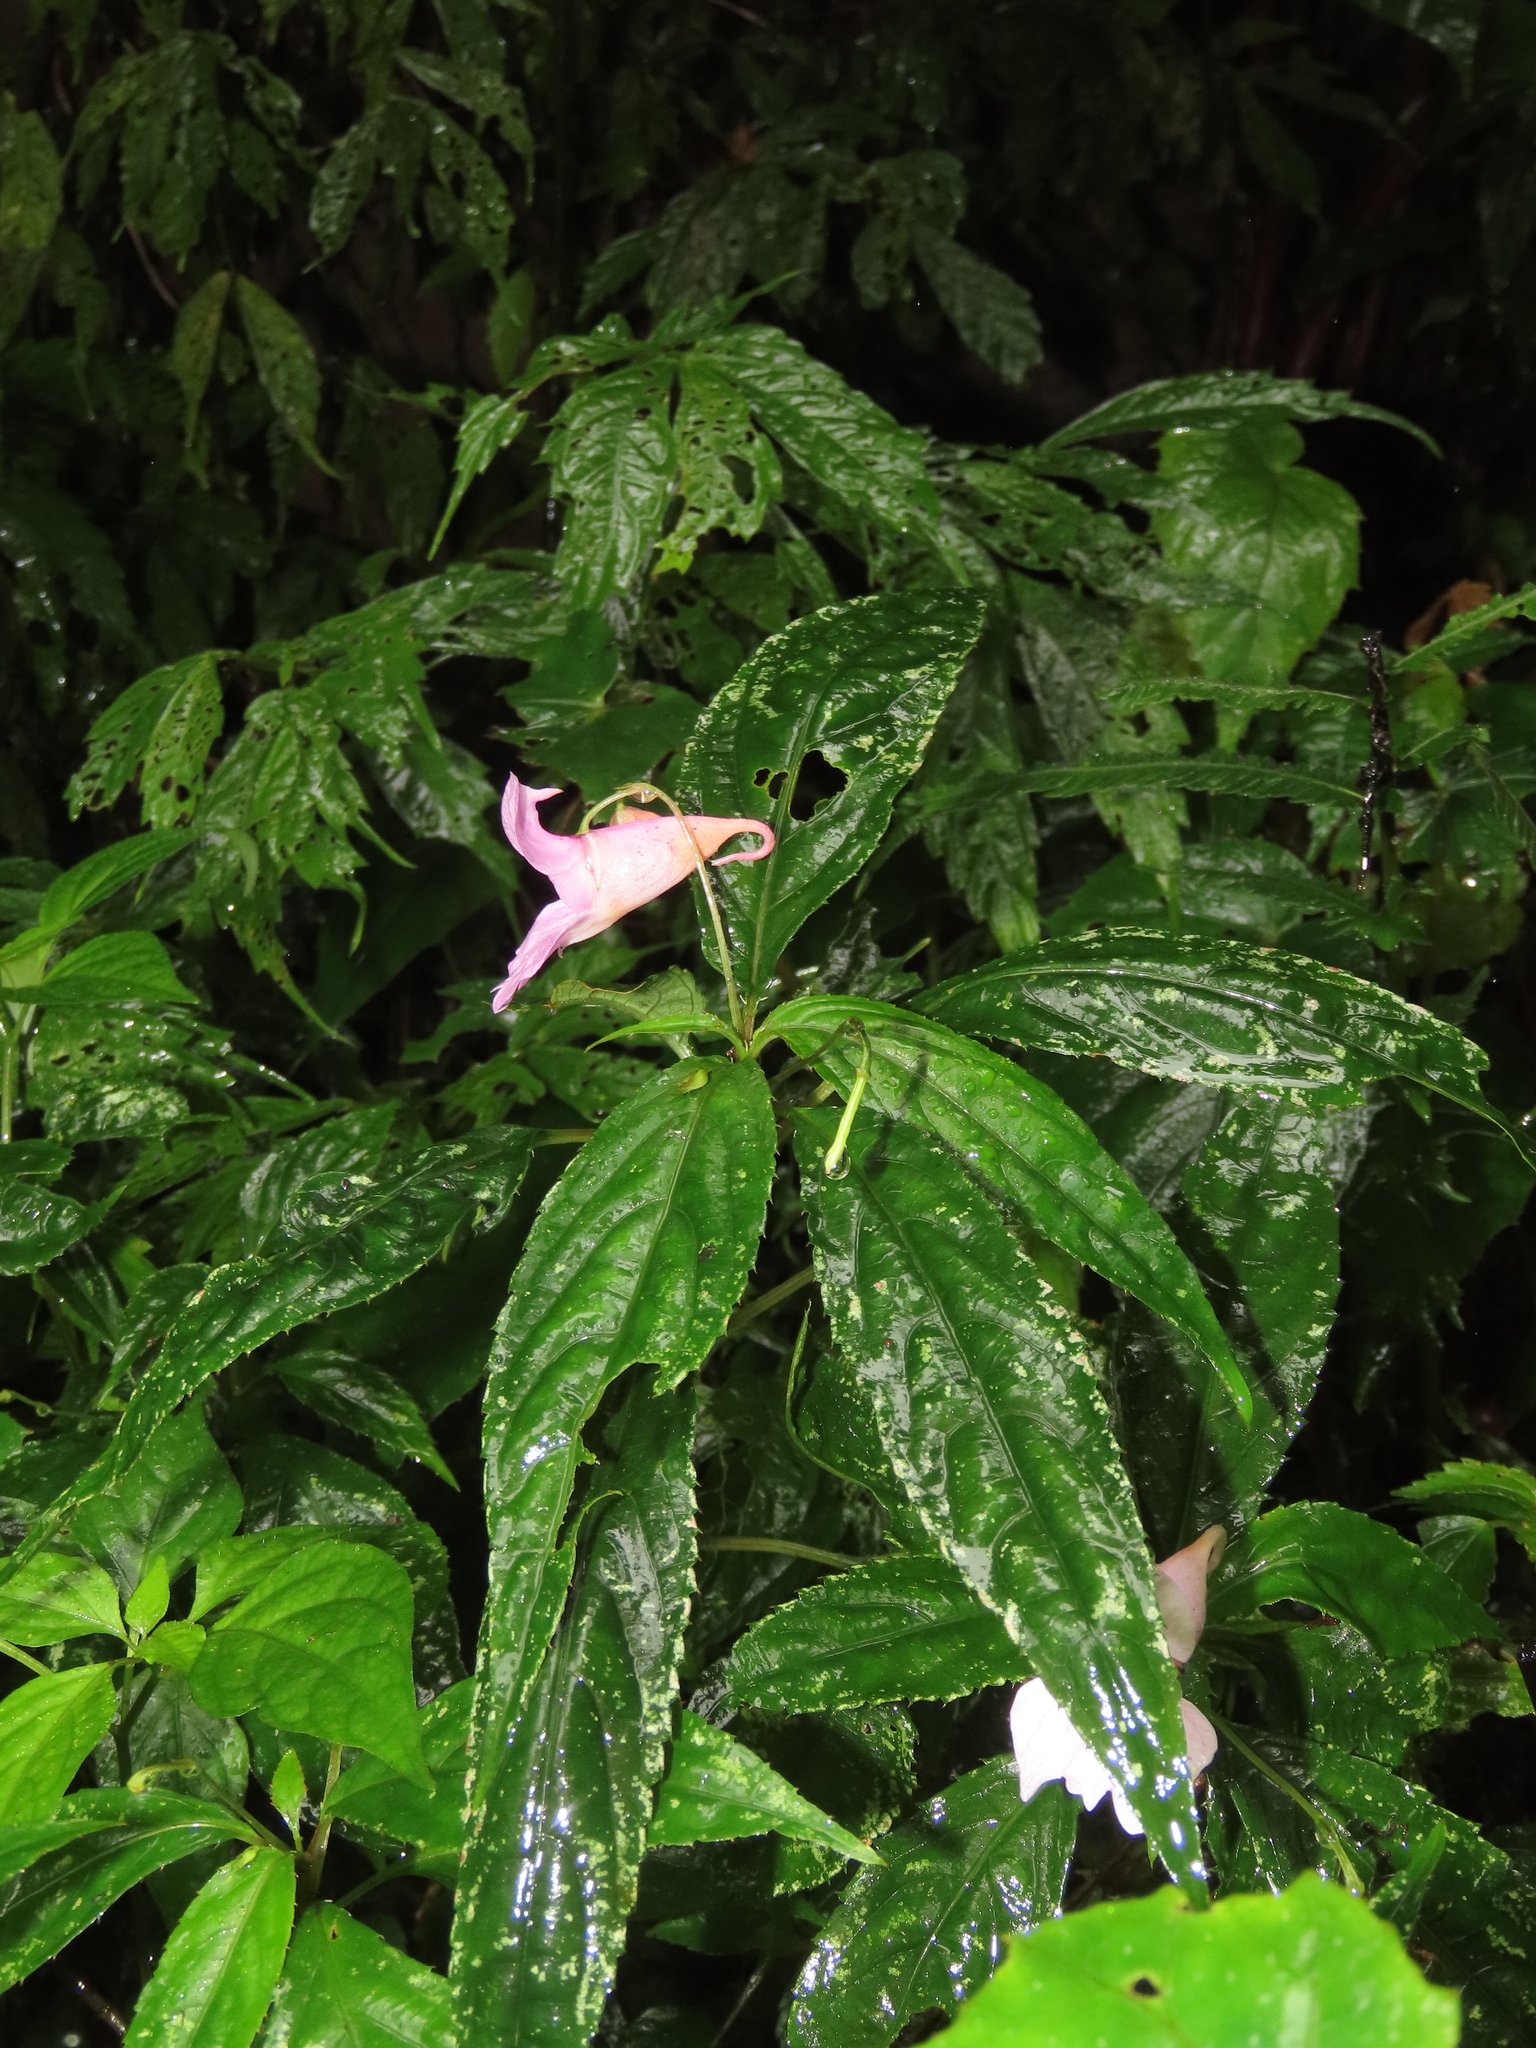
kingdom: Plantae
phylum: Tracheophyta
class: Magnoliopsida
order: Ericales
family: Balsaminaceae
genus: Impatiens
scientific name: Impatiens uniflora
